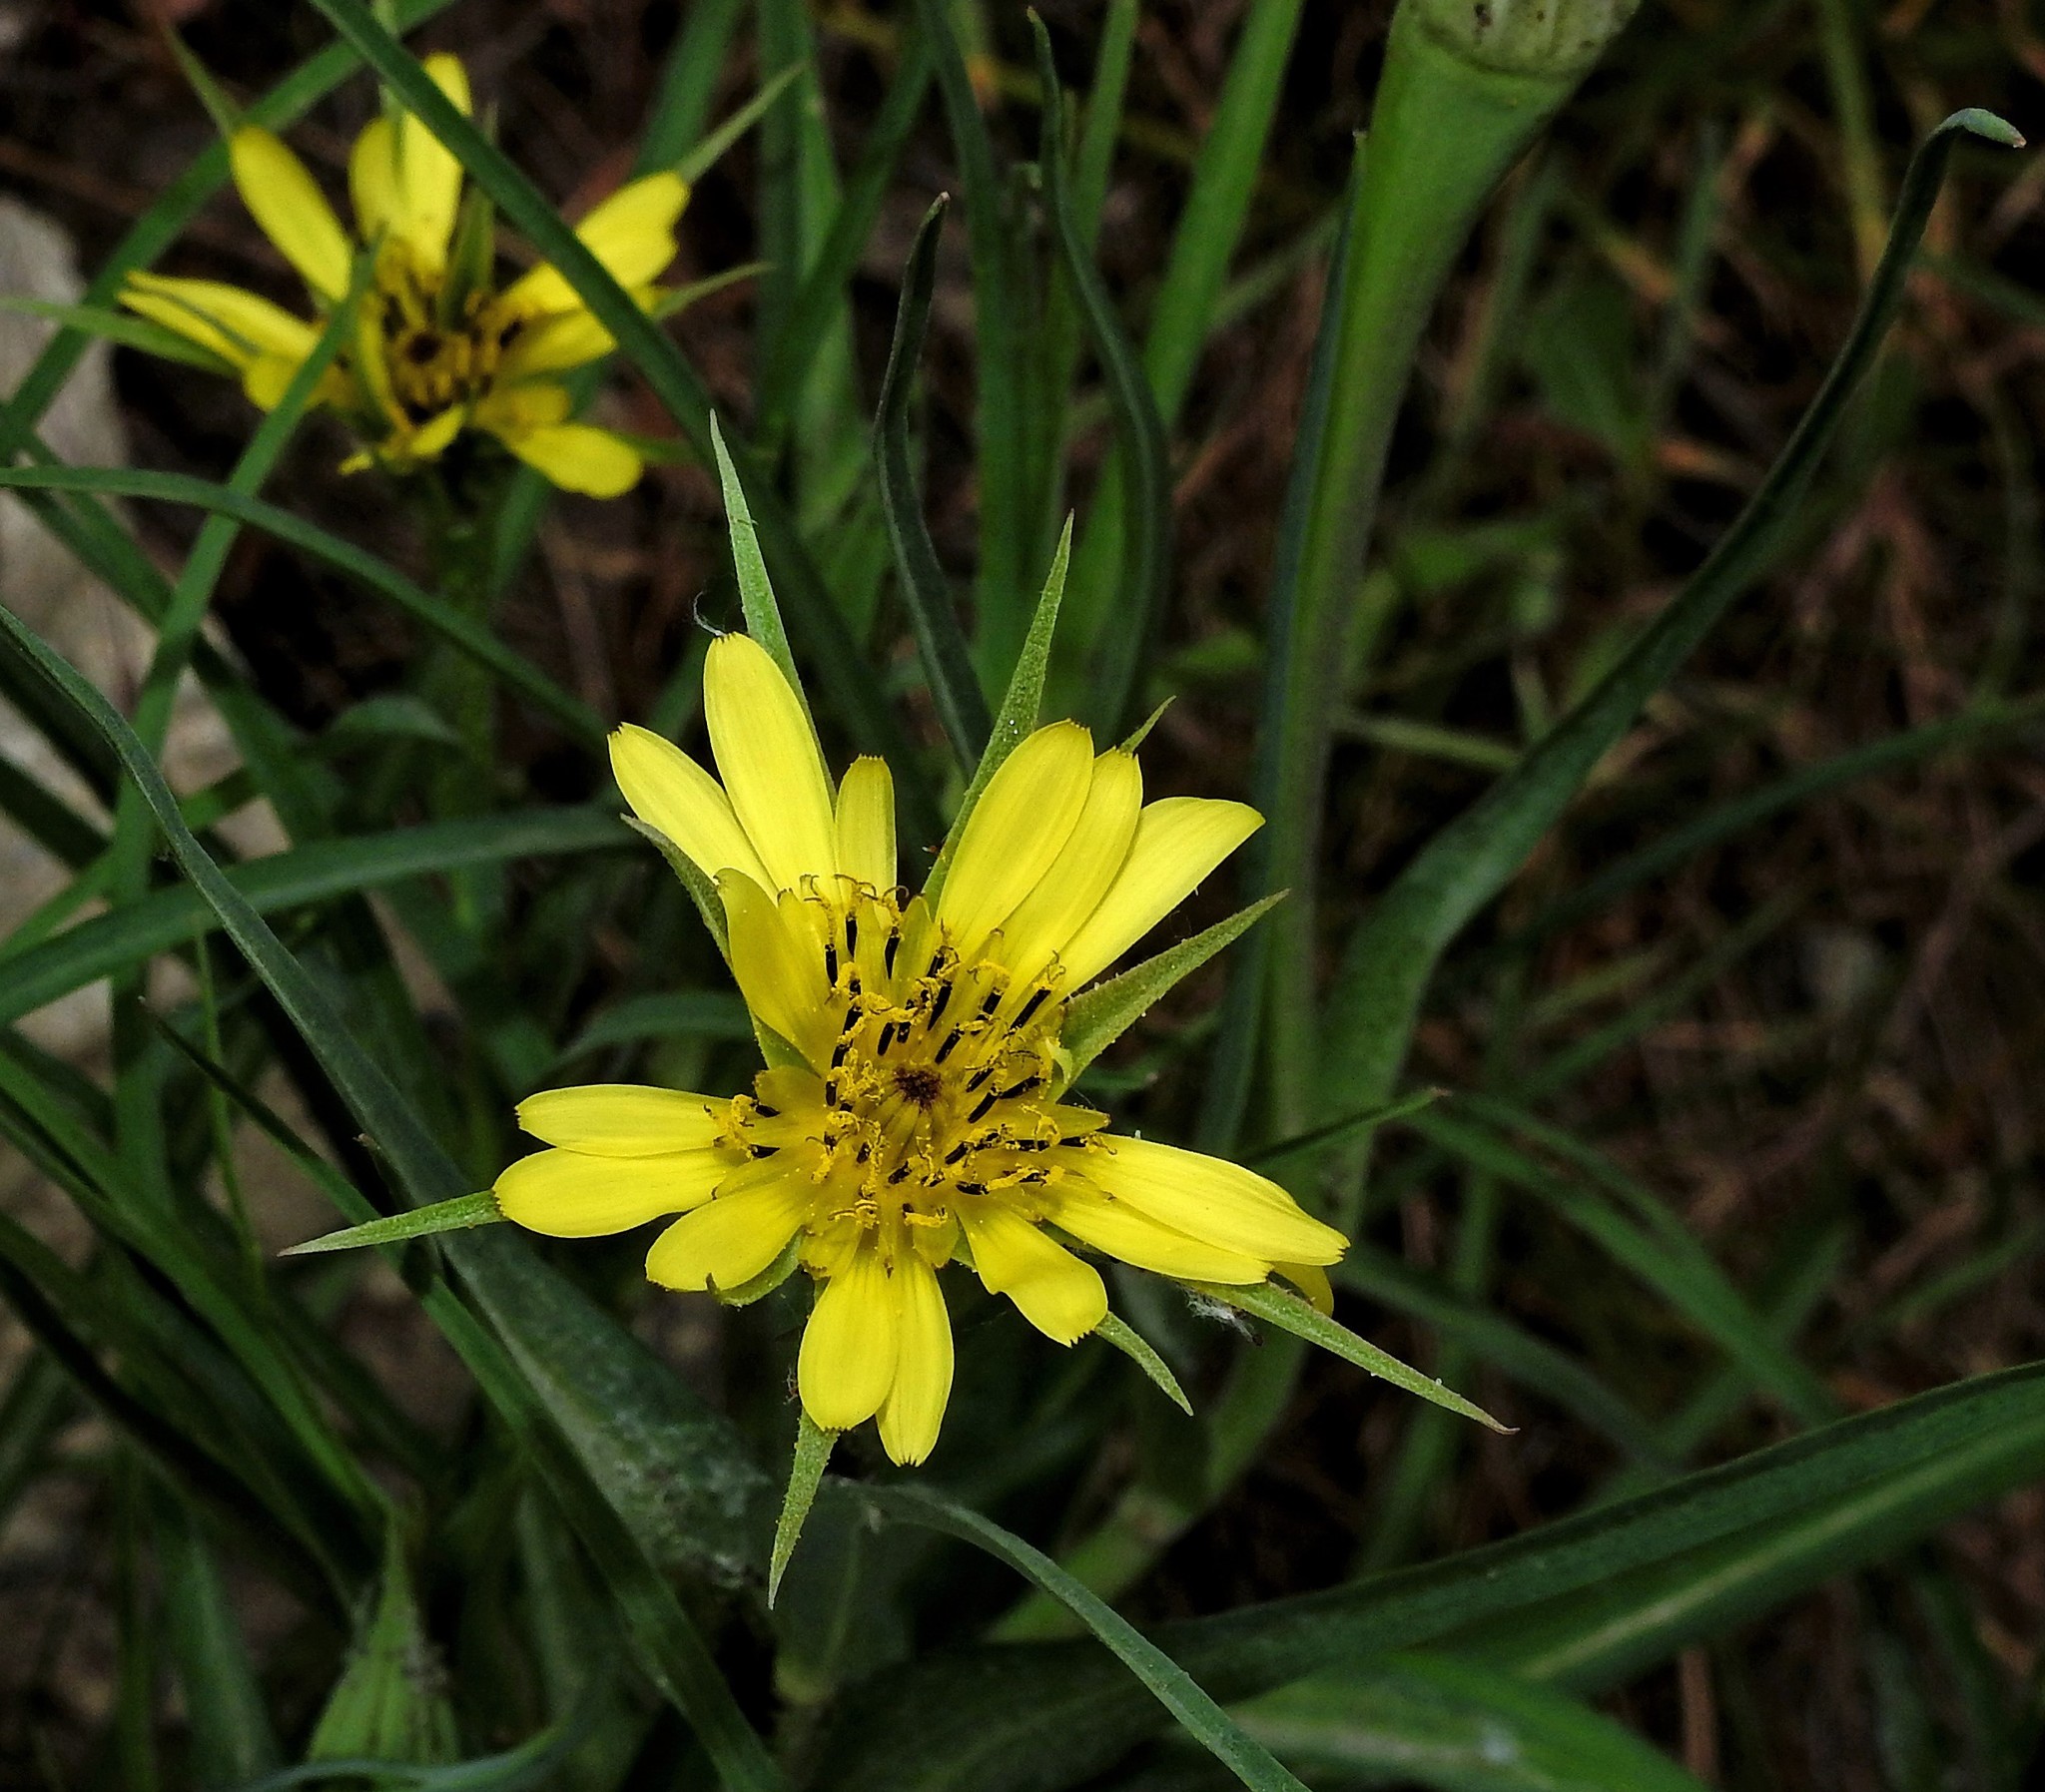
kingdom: Plantae
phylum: Tracheophyta
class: Magnoliopsida
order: Asterales
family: Asteraceae
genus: Tragopogon
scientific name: Tragopogon dubius
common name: Yellow salsify
